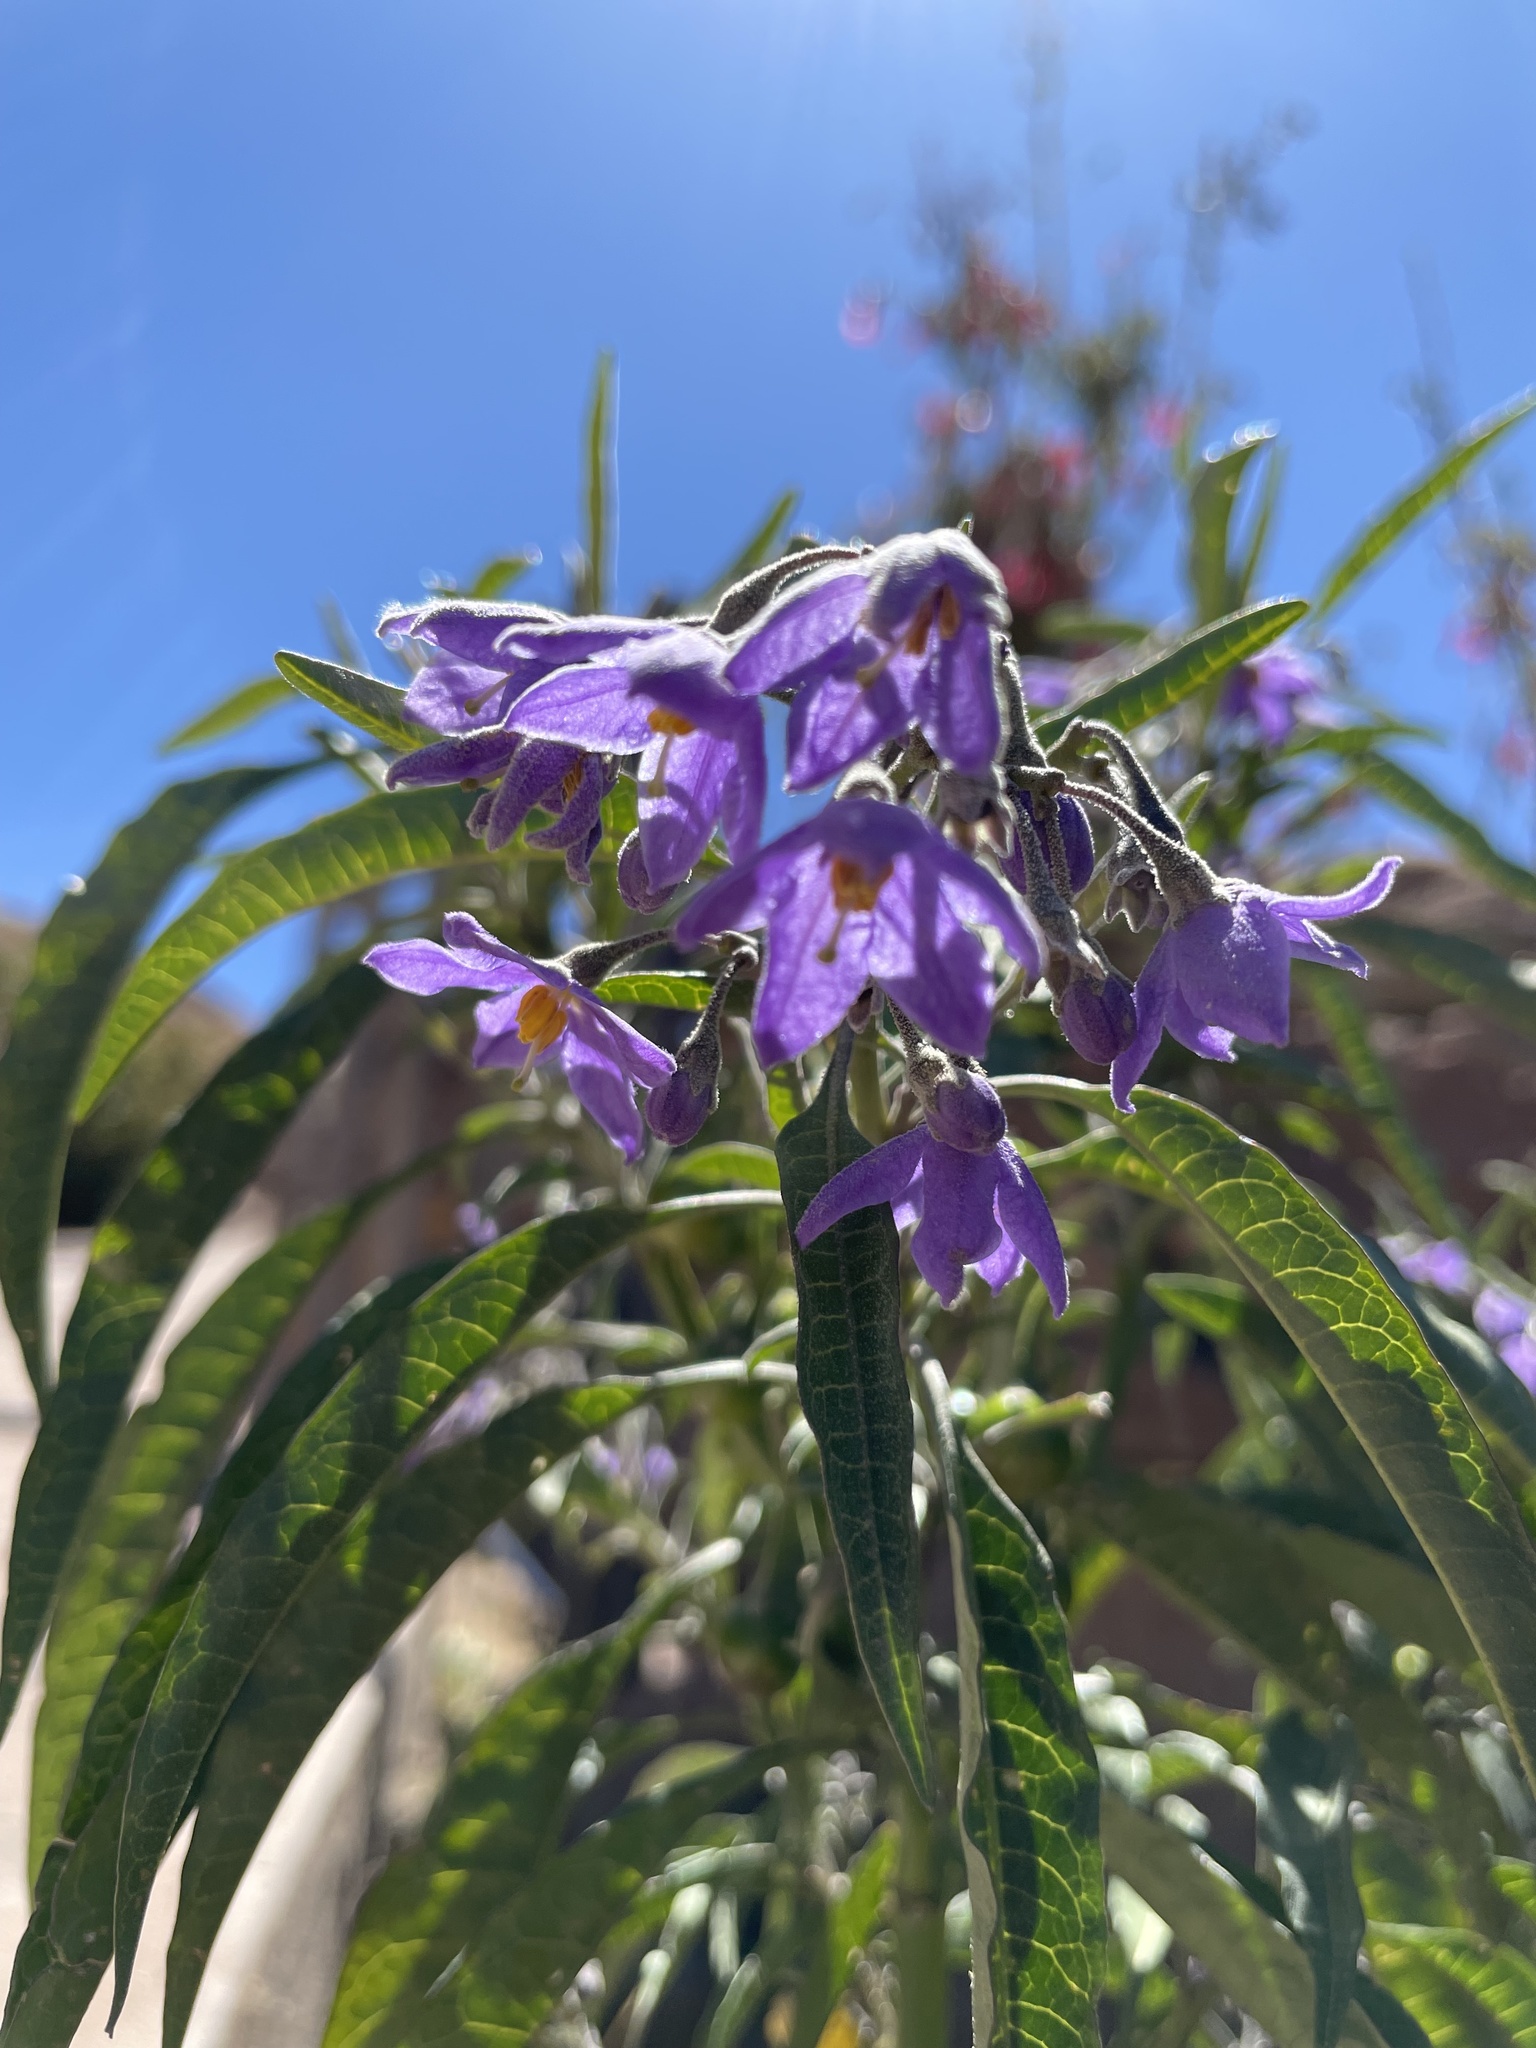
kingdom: Plantae
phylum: Tracheophyta
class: Magnoliopsida
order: Solanales
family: Solanaceae
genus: Solanum
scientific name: Solanum nitidum
